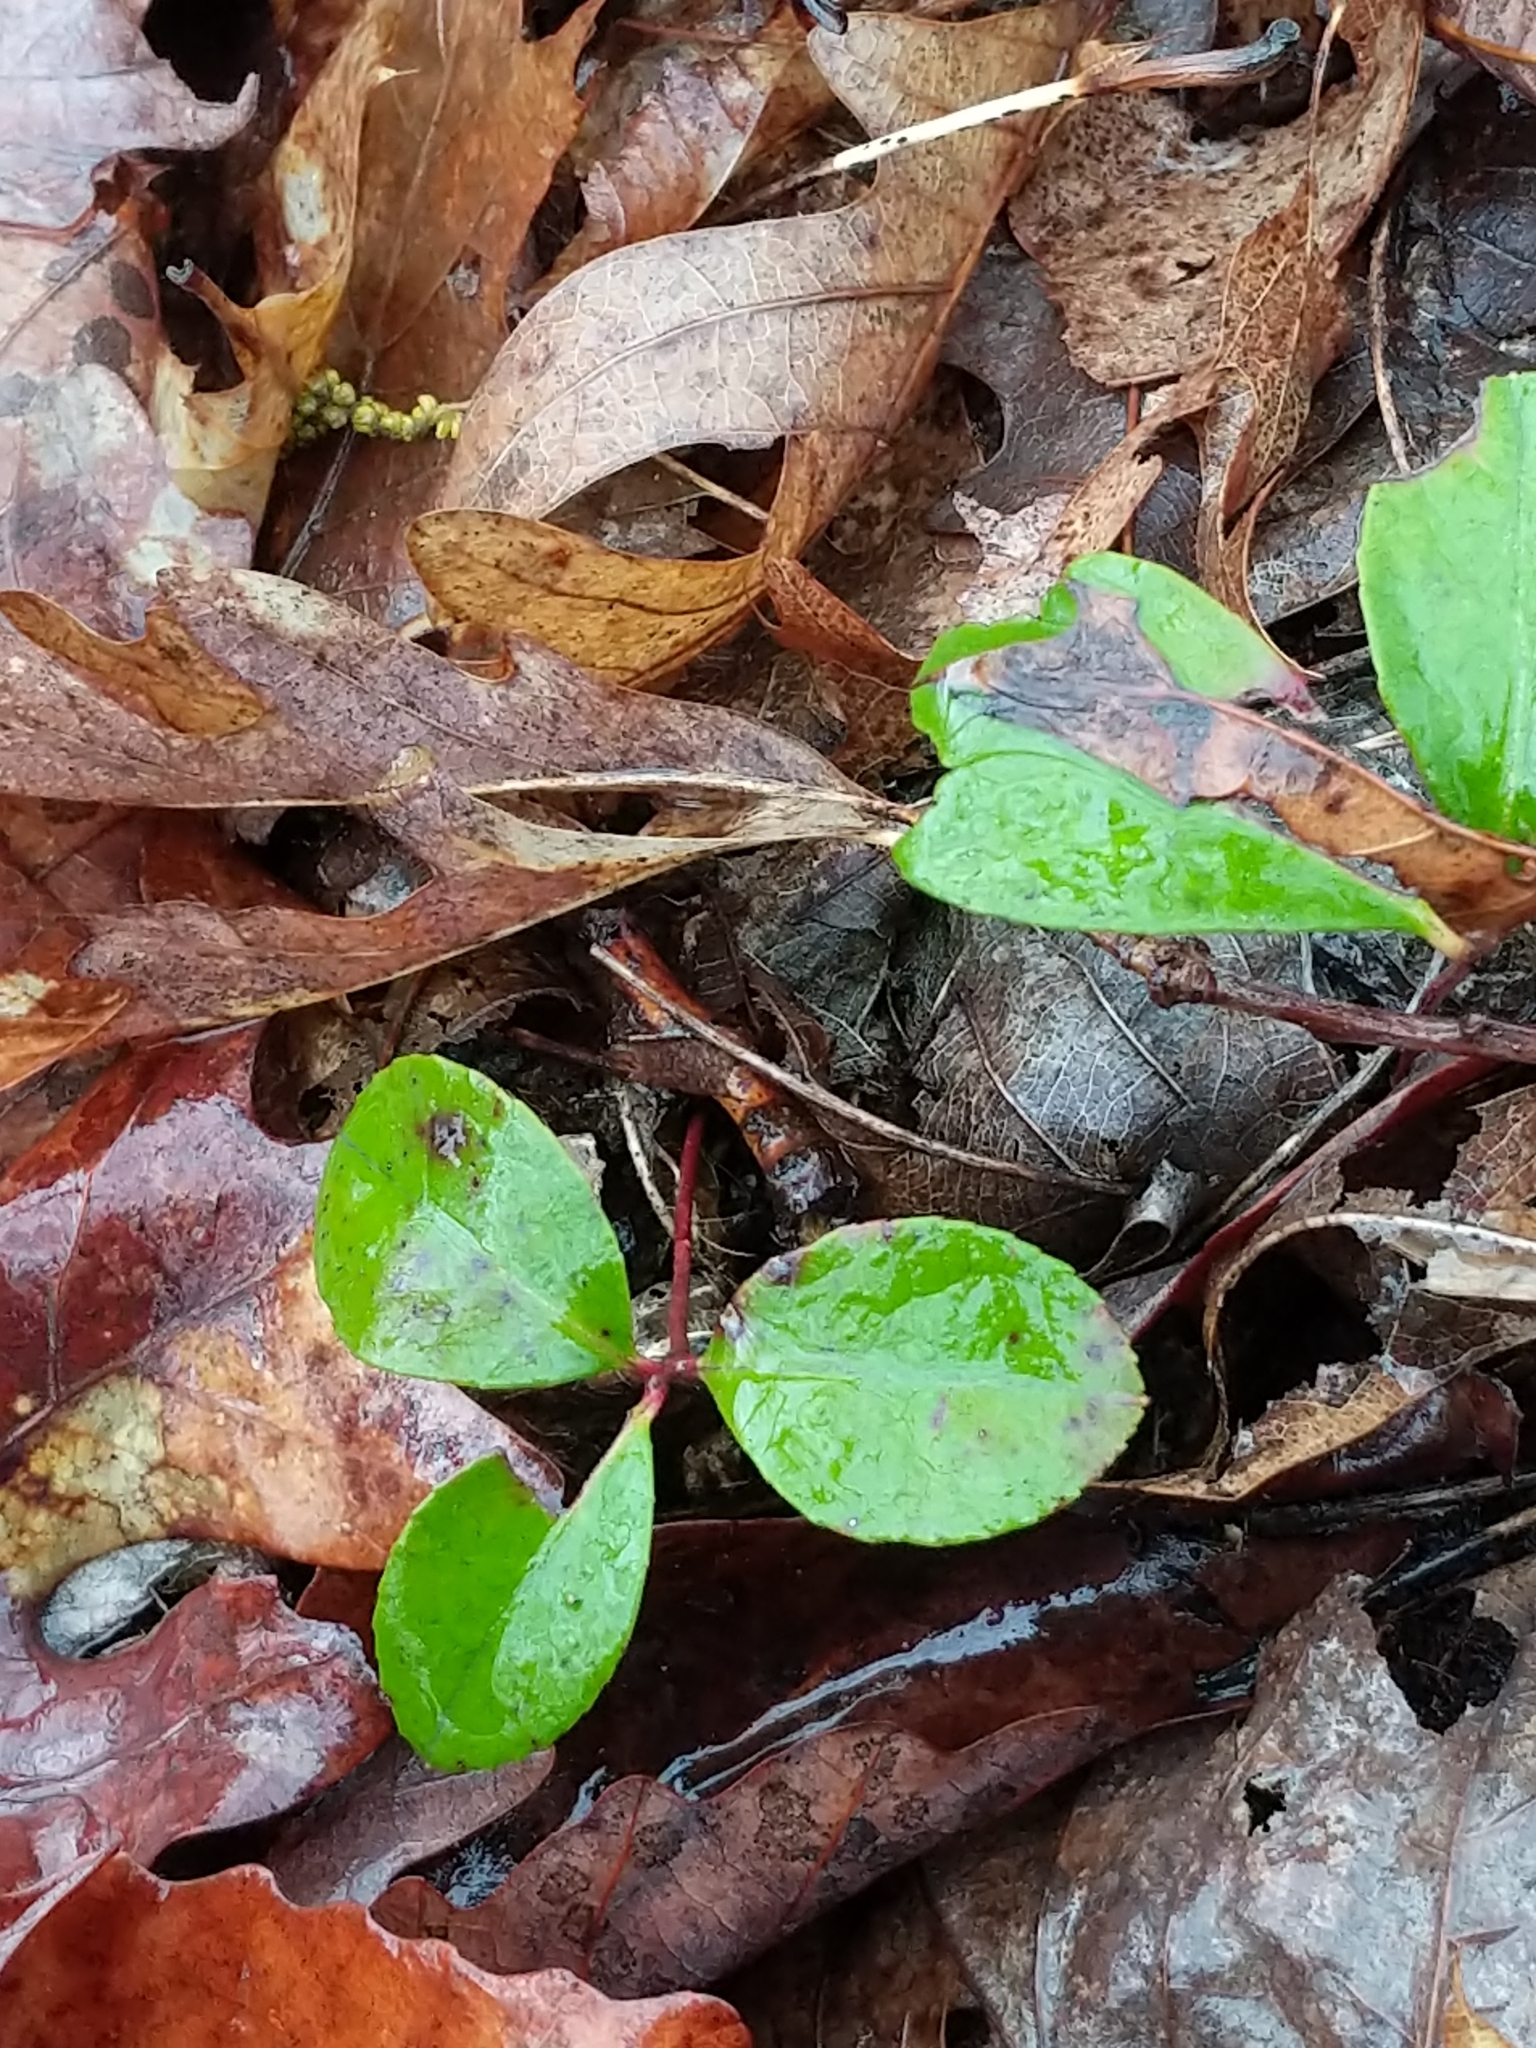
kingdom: Plantae
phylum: Tracheophyta
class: Magnoliopsida
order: Ericales
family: Ericaceae
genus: Gaultheria
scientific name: Gaultheria procumbens
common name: Checkerberry
